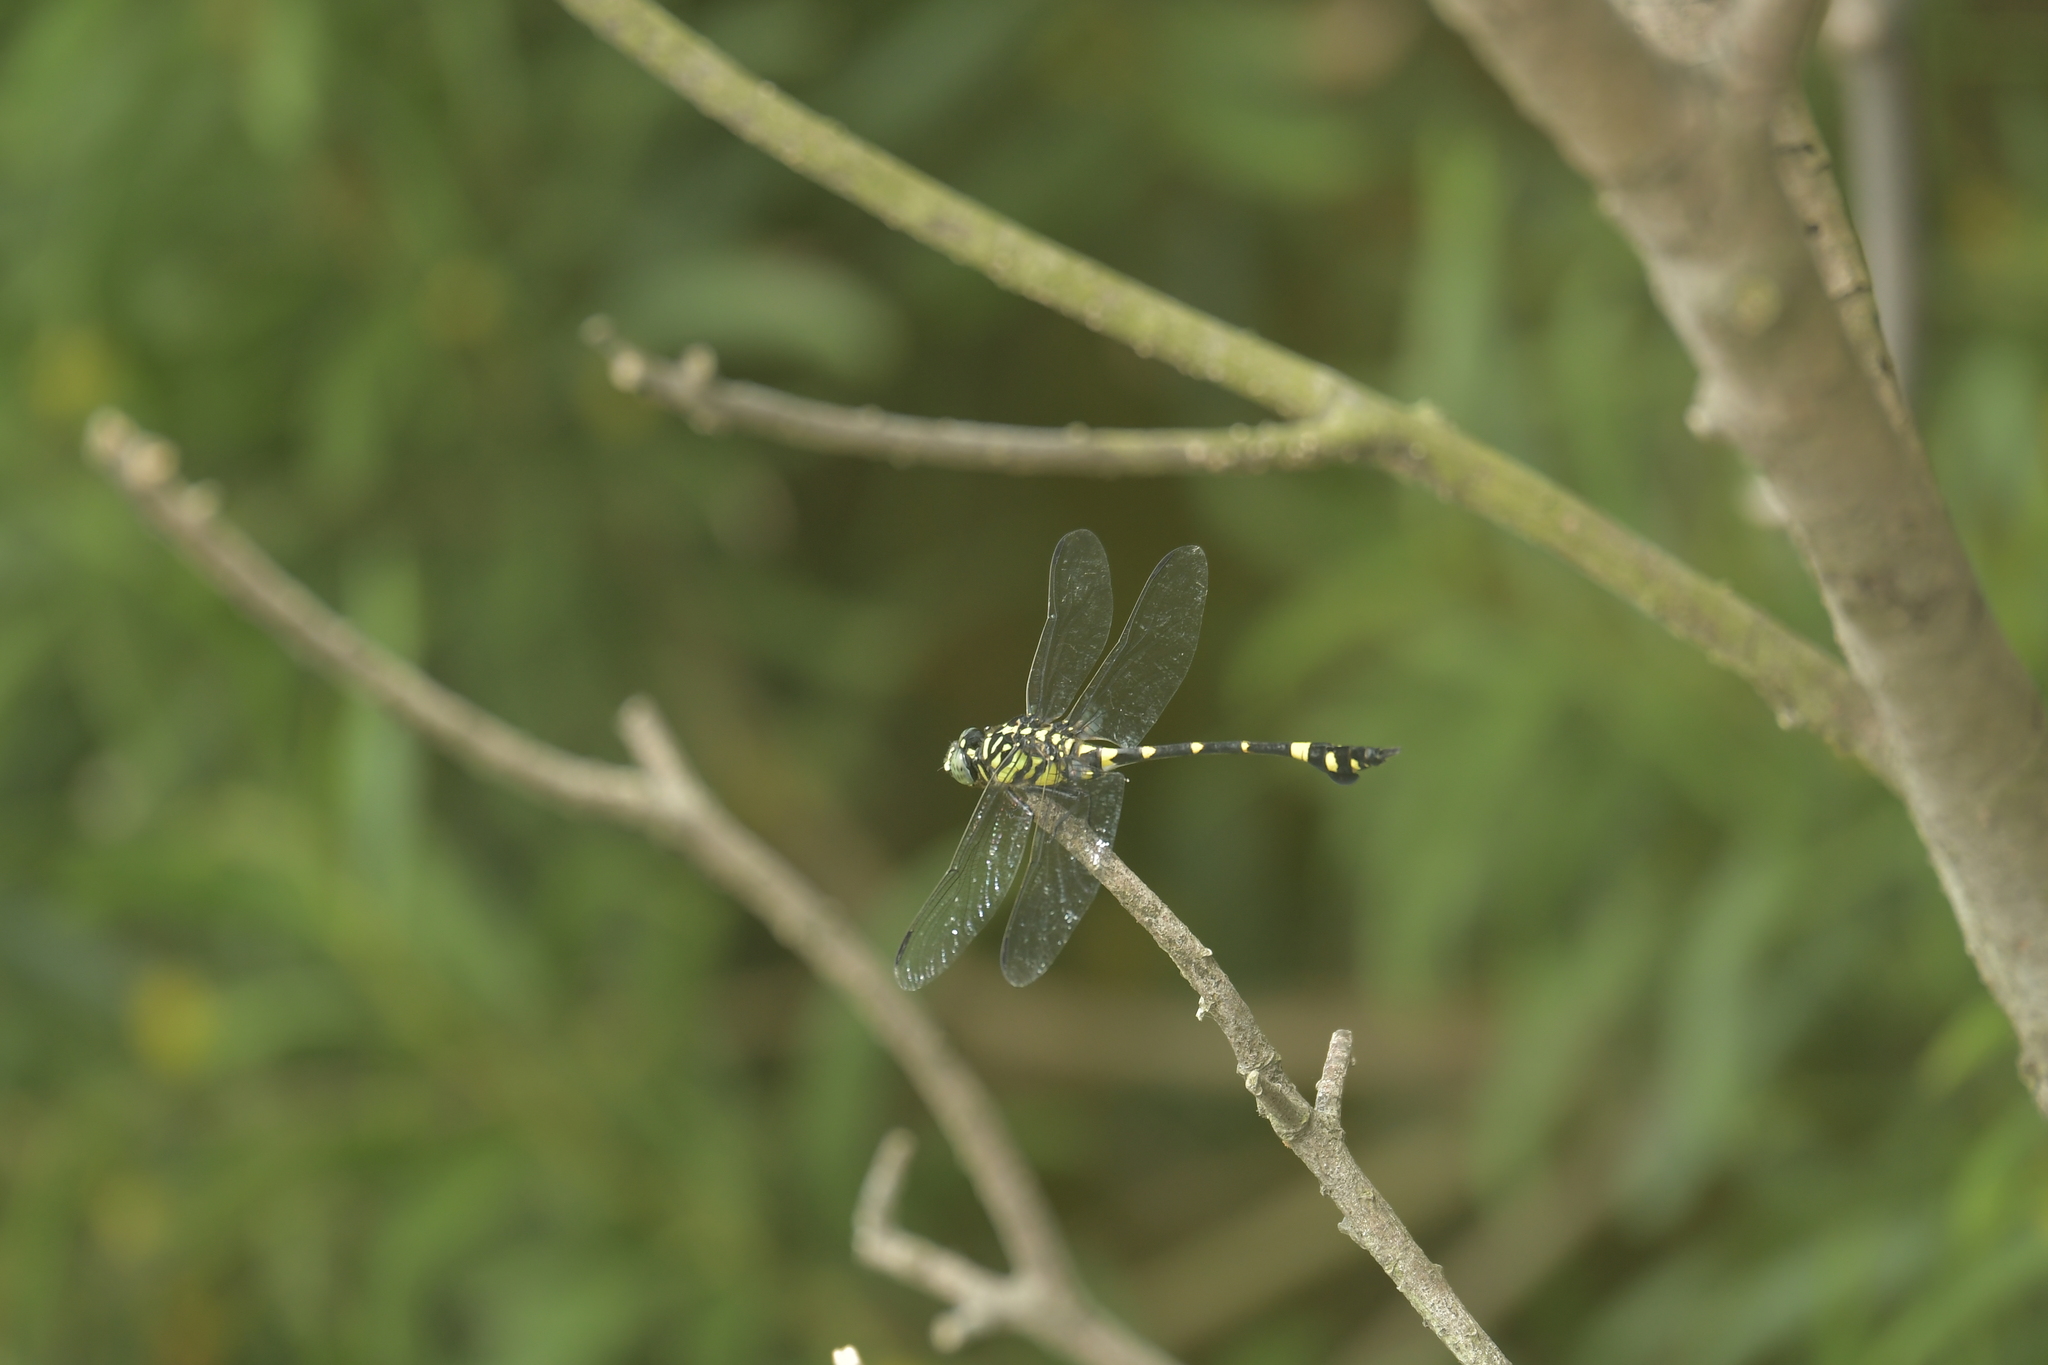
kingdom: Animalia
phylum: Arthropoda
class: Insecta
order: Odonata
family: Gomphidae
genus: Ictinogomphus
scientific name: Ictinogomphus rapax
